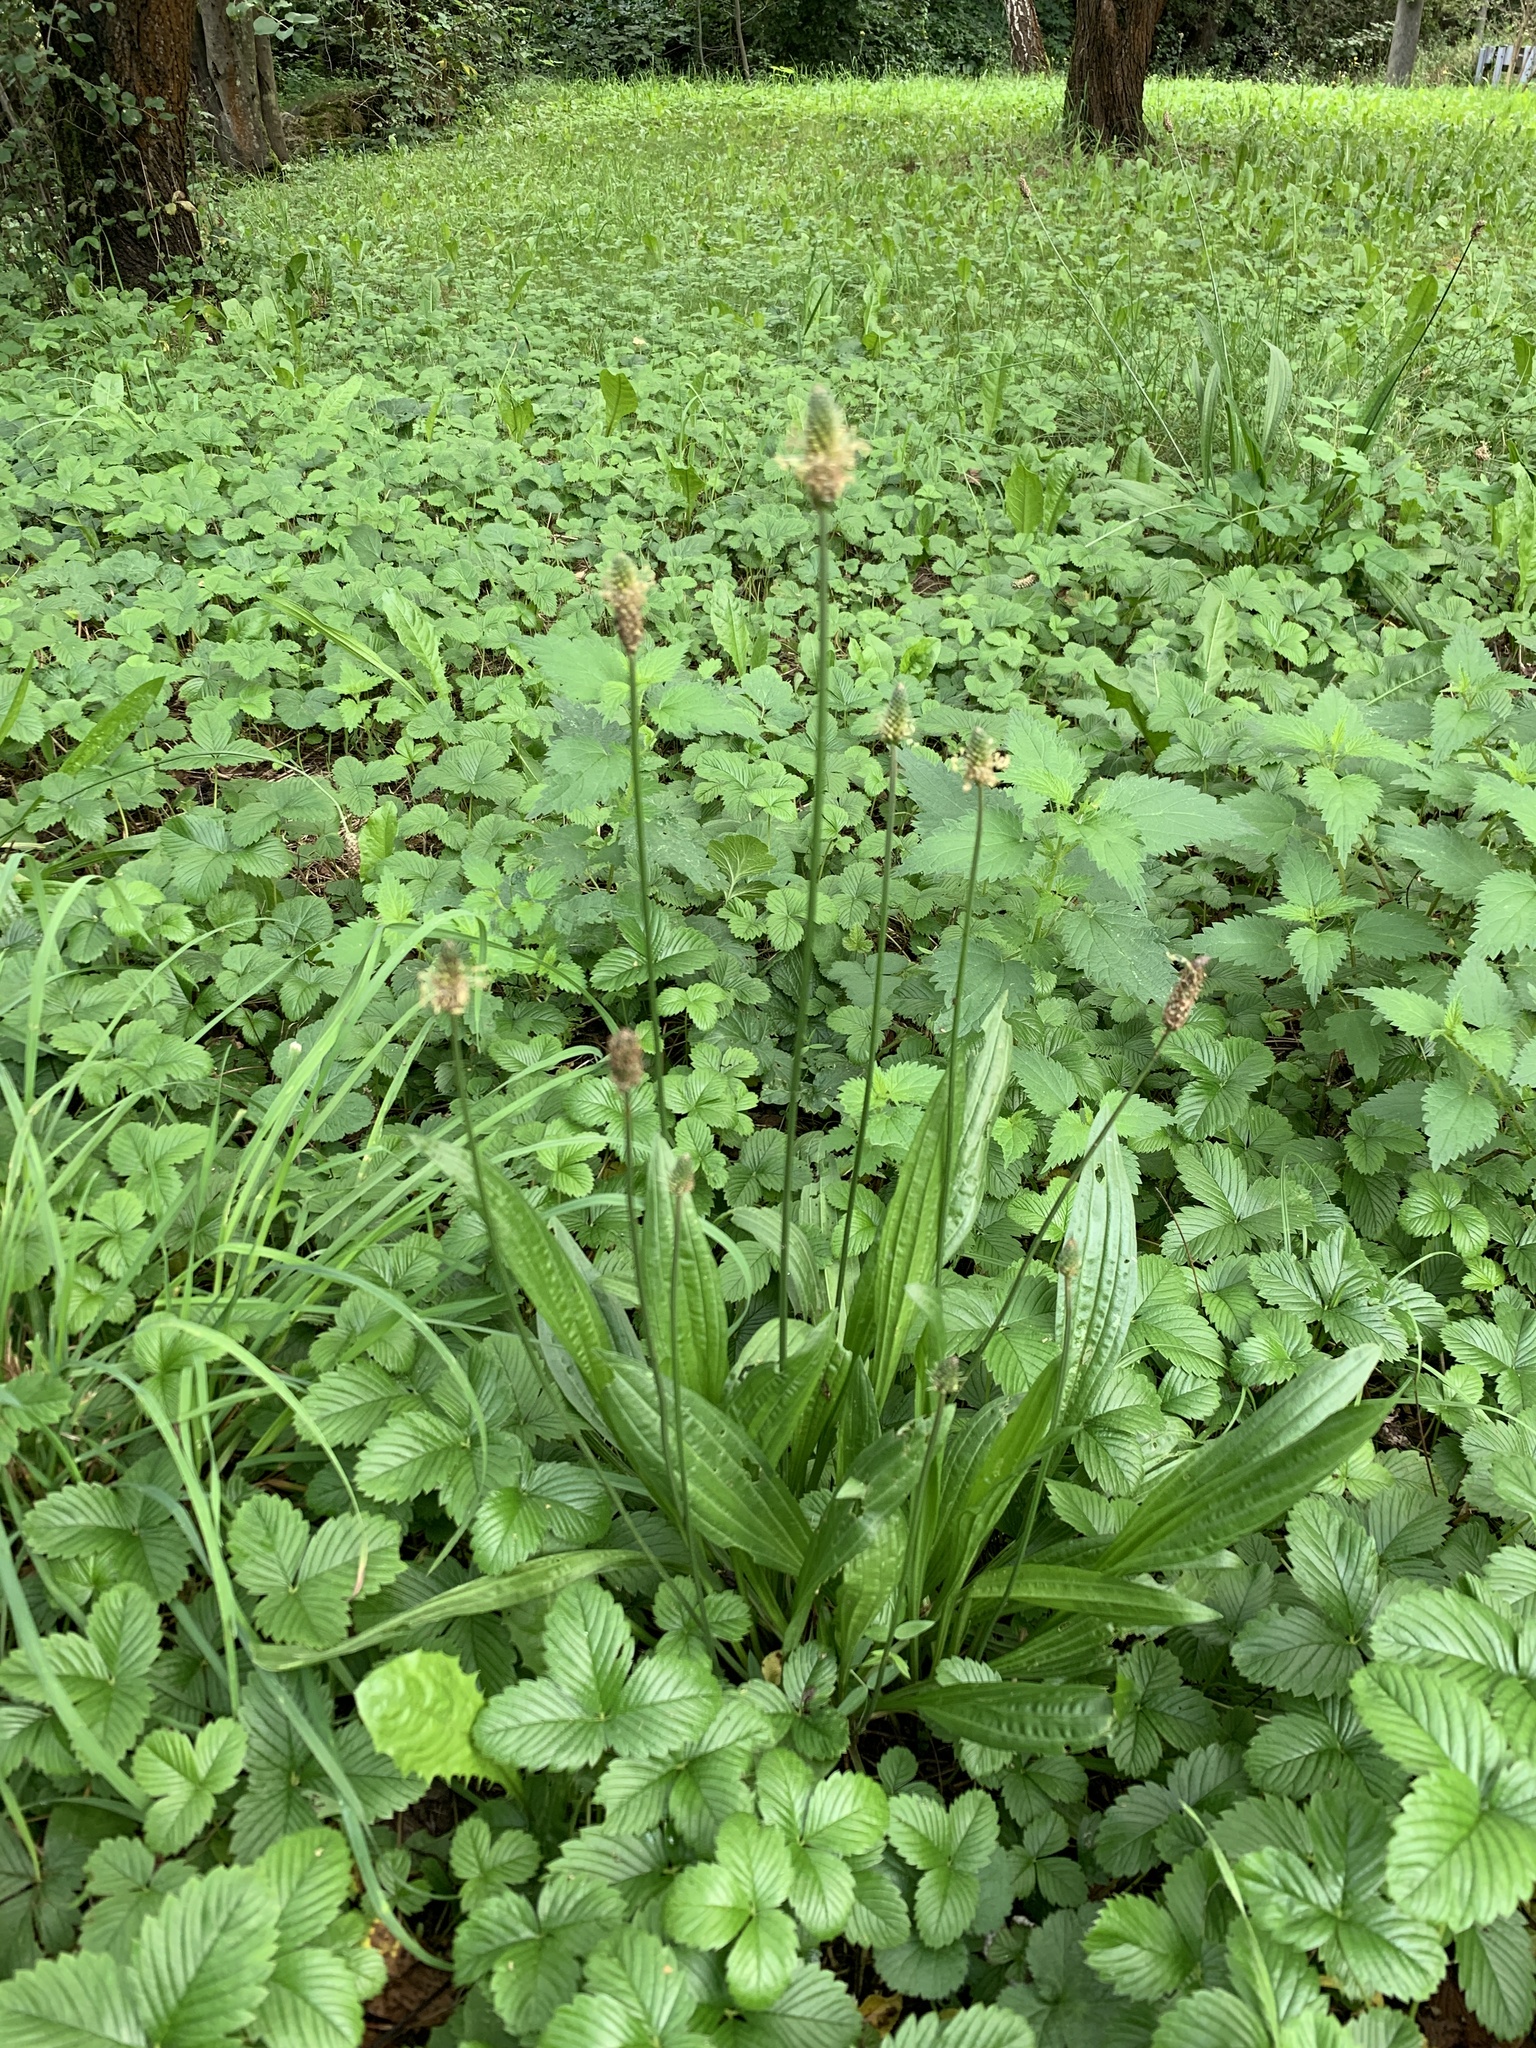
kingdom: Plantae
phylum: Tracheophyta
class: Magnoliopsida
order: Lamiales
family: Plantaginaceae
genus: Plantago
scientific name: Plantago lanceolata
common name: Ribwort plantain
